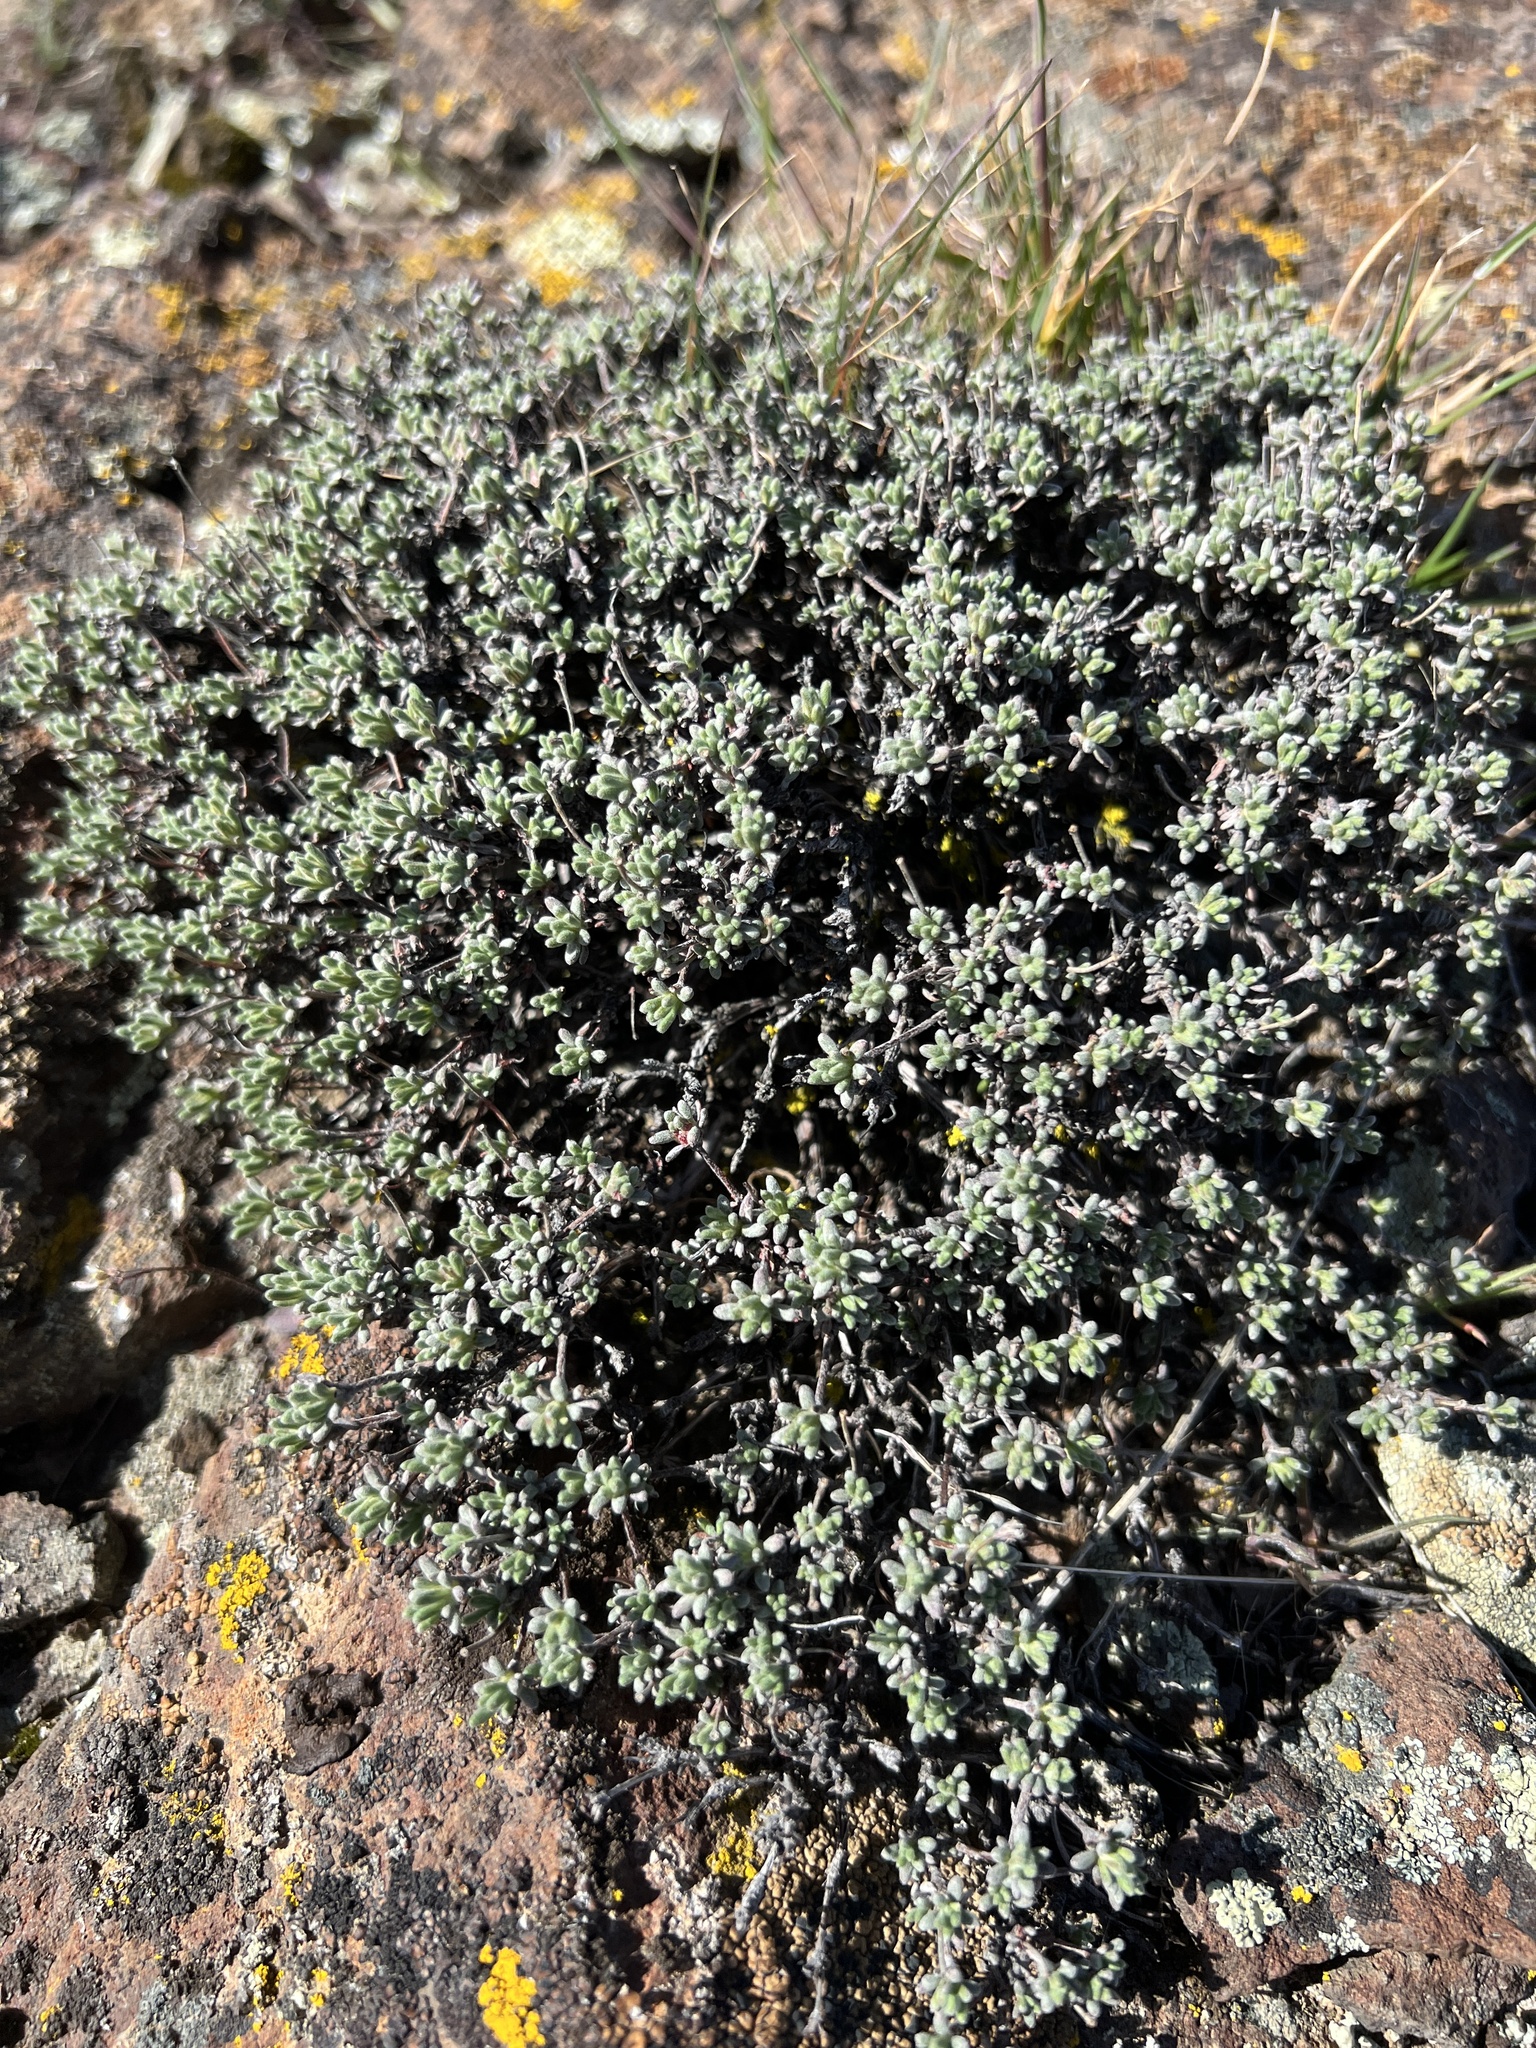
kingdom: Plantae
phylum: Tracheophyta
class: Magnoliopsida
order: Caryophyllales
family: Polygonaceae
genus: Eriogonum
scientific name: Eriogonum thymoides
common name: Thyme-leaf wild buckwheat
